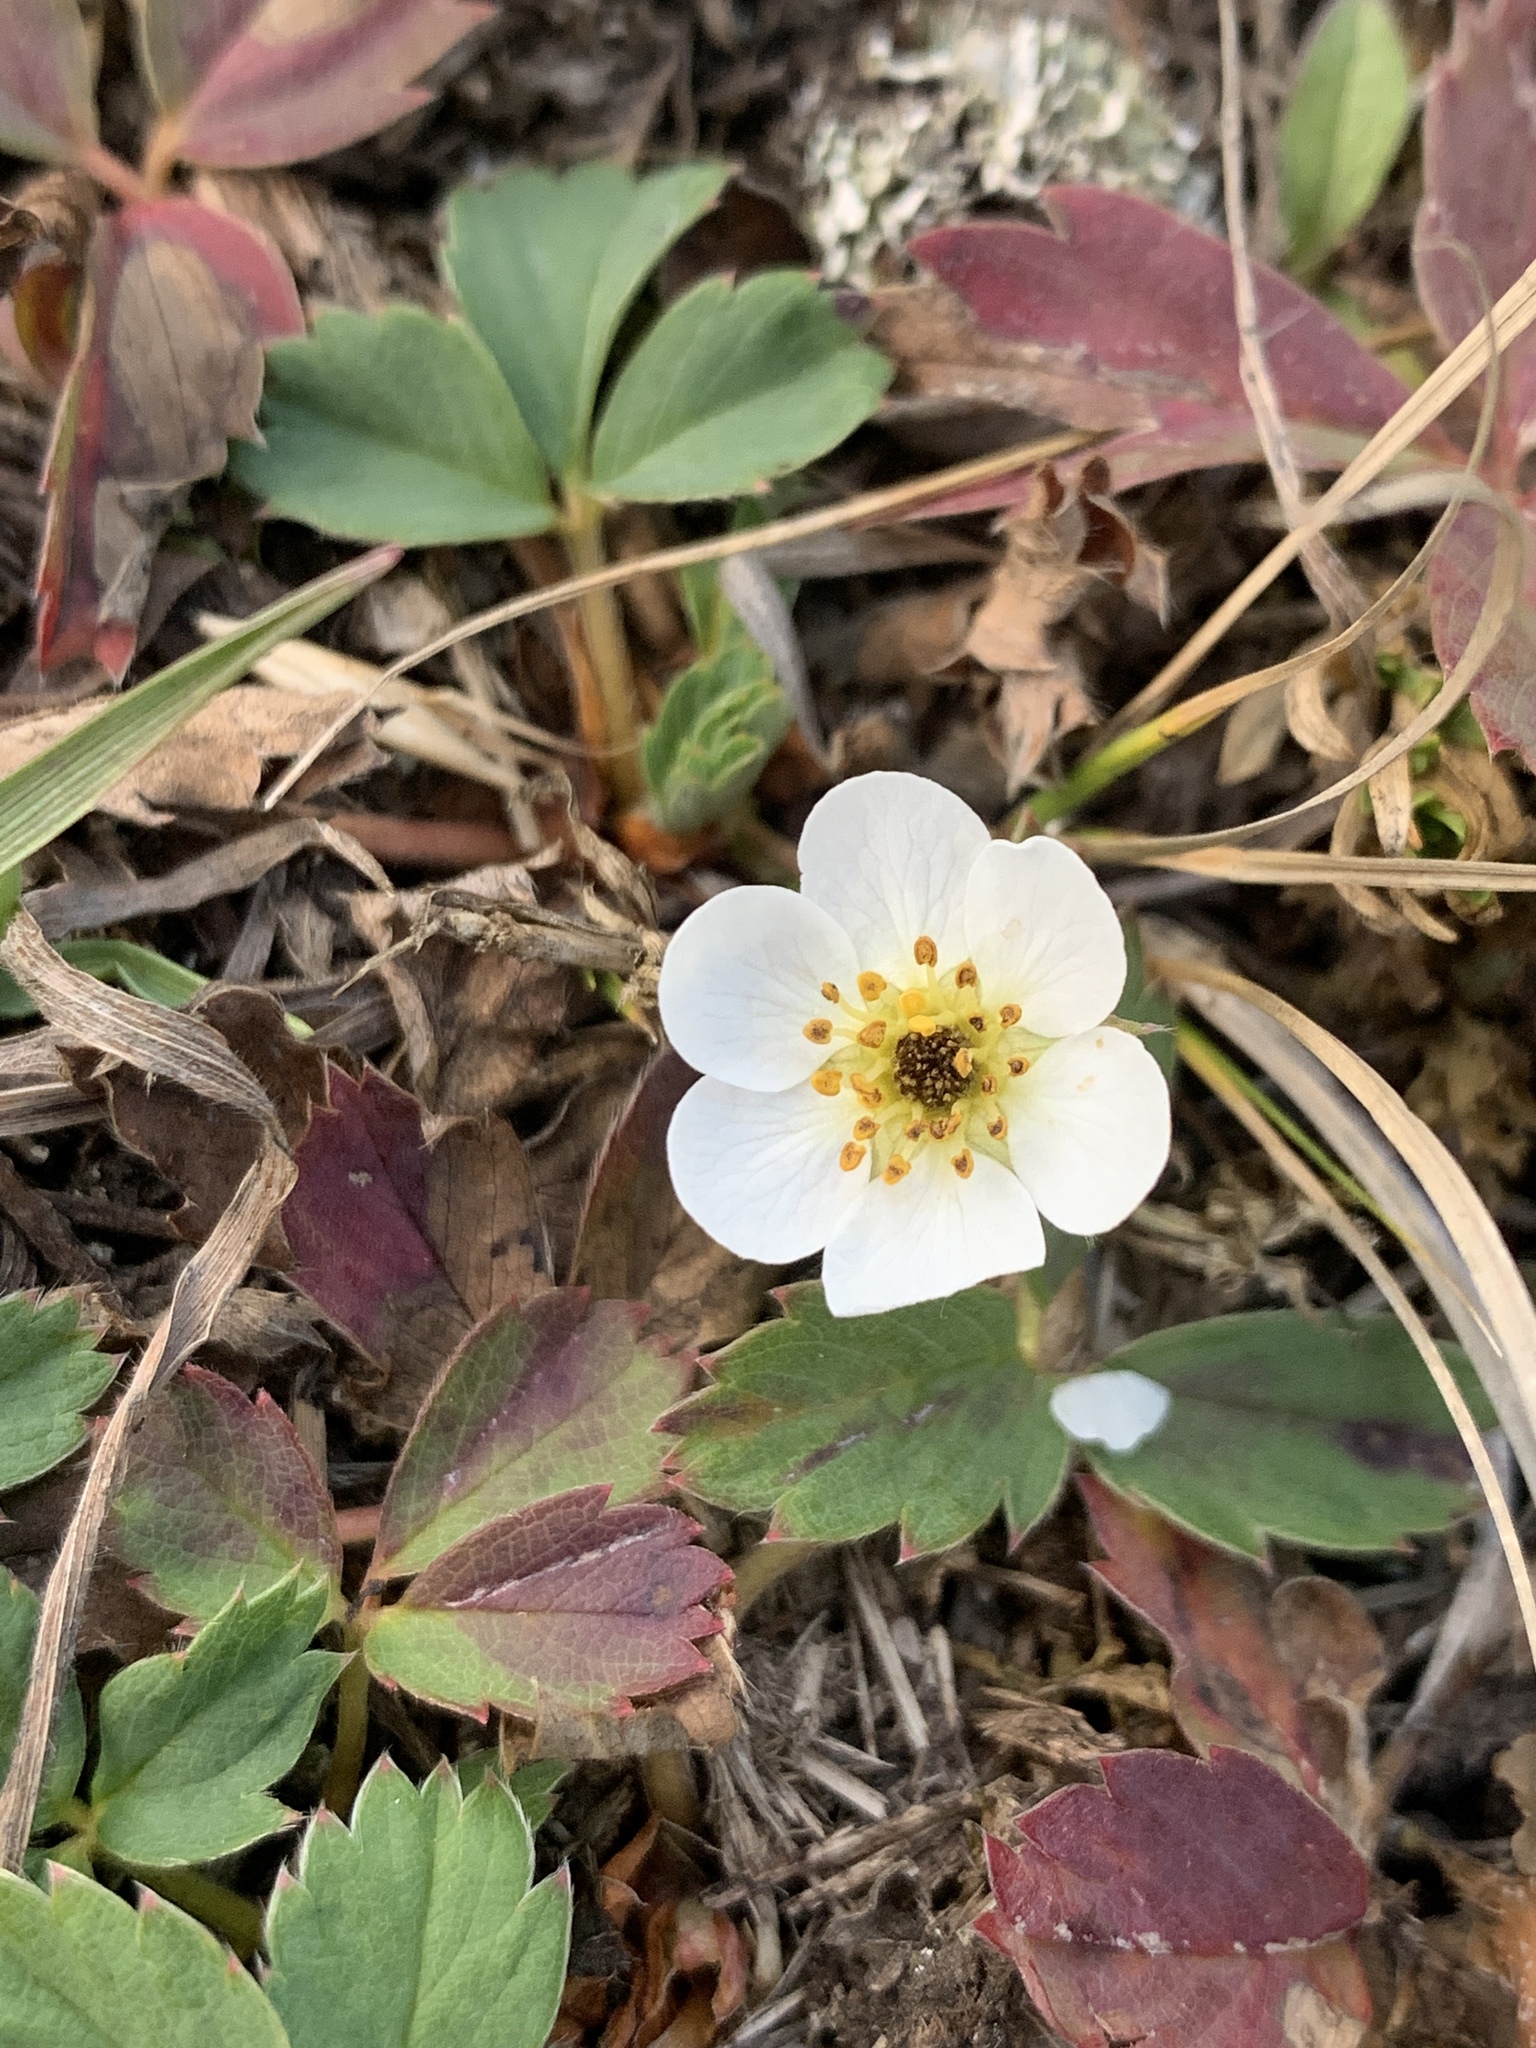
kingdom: Plantae
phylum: Tracheophyta
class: Magnoliopsida
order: Rosales
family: Rosaceae
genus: Fragaria
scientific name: Fragaria virginiana
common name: Thickleaved wild strawberry
